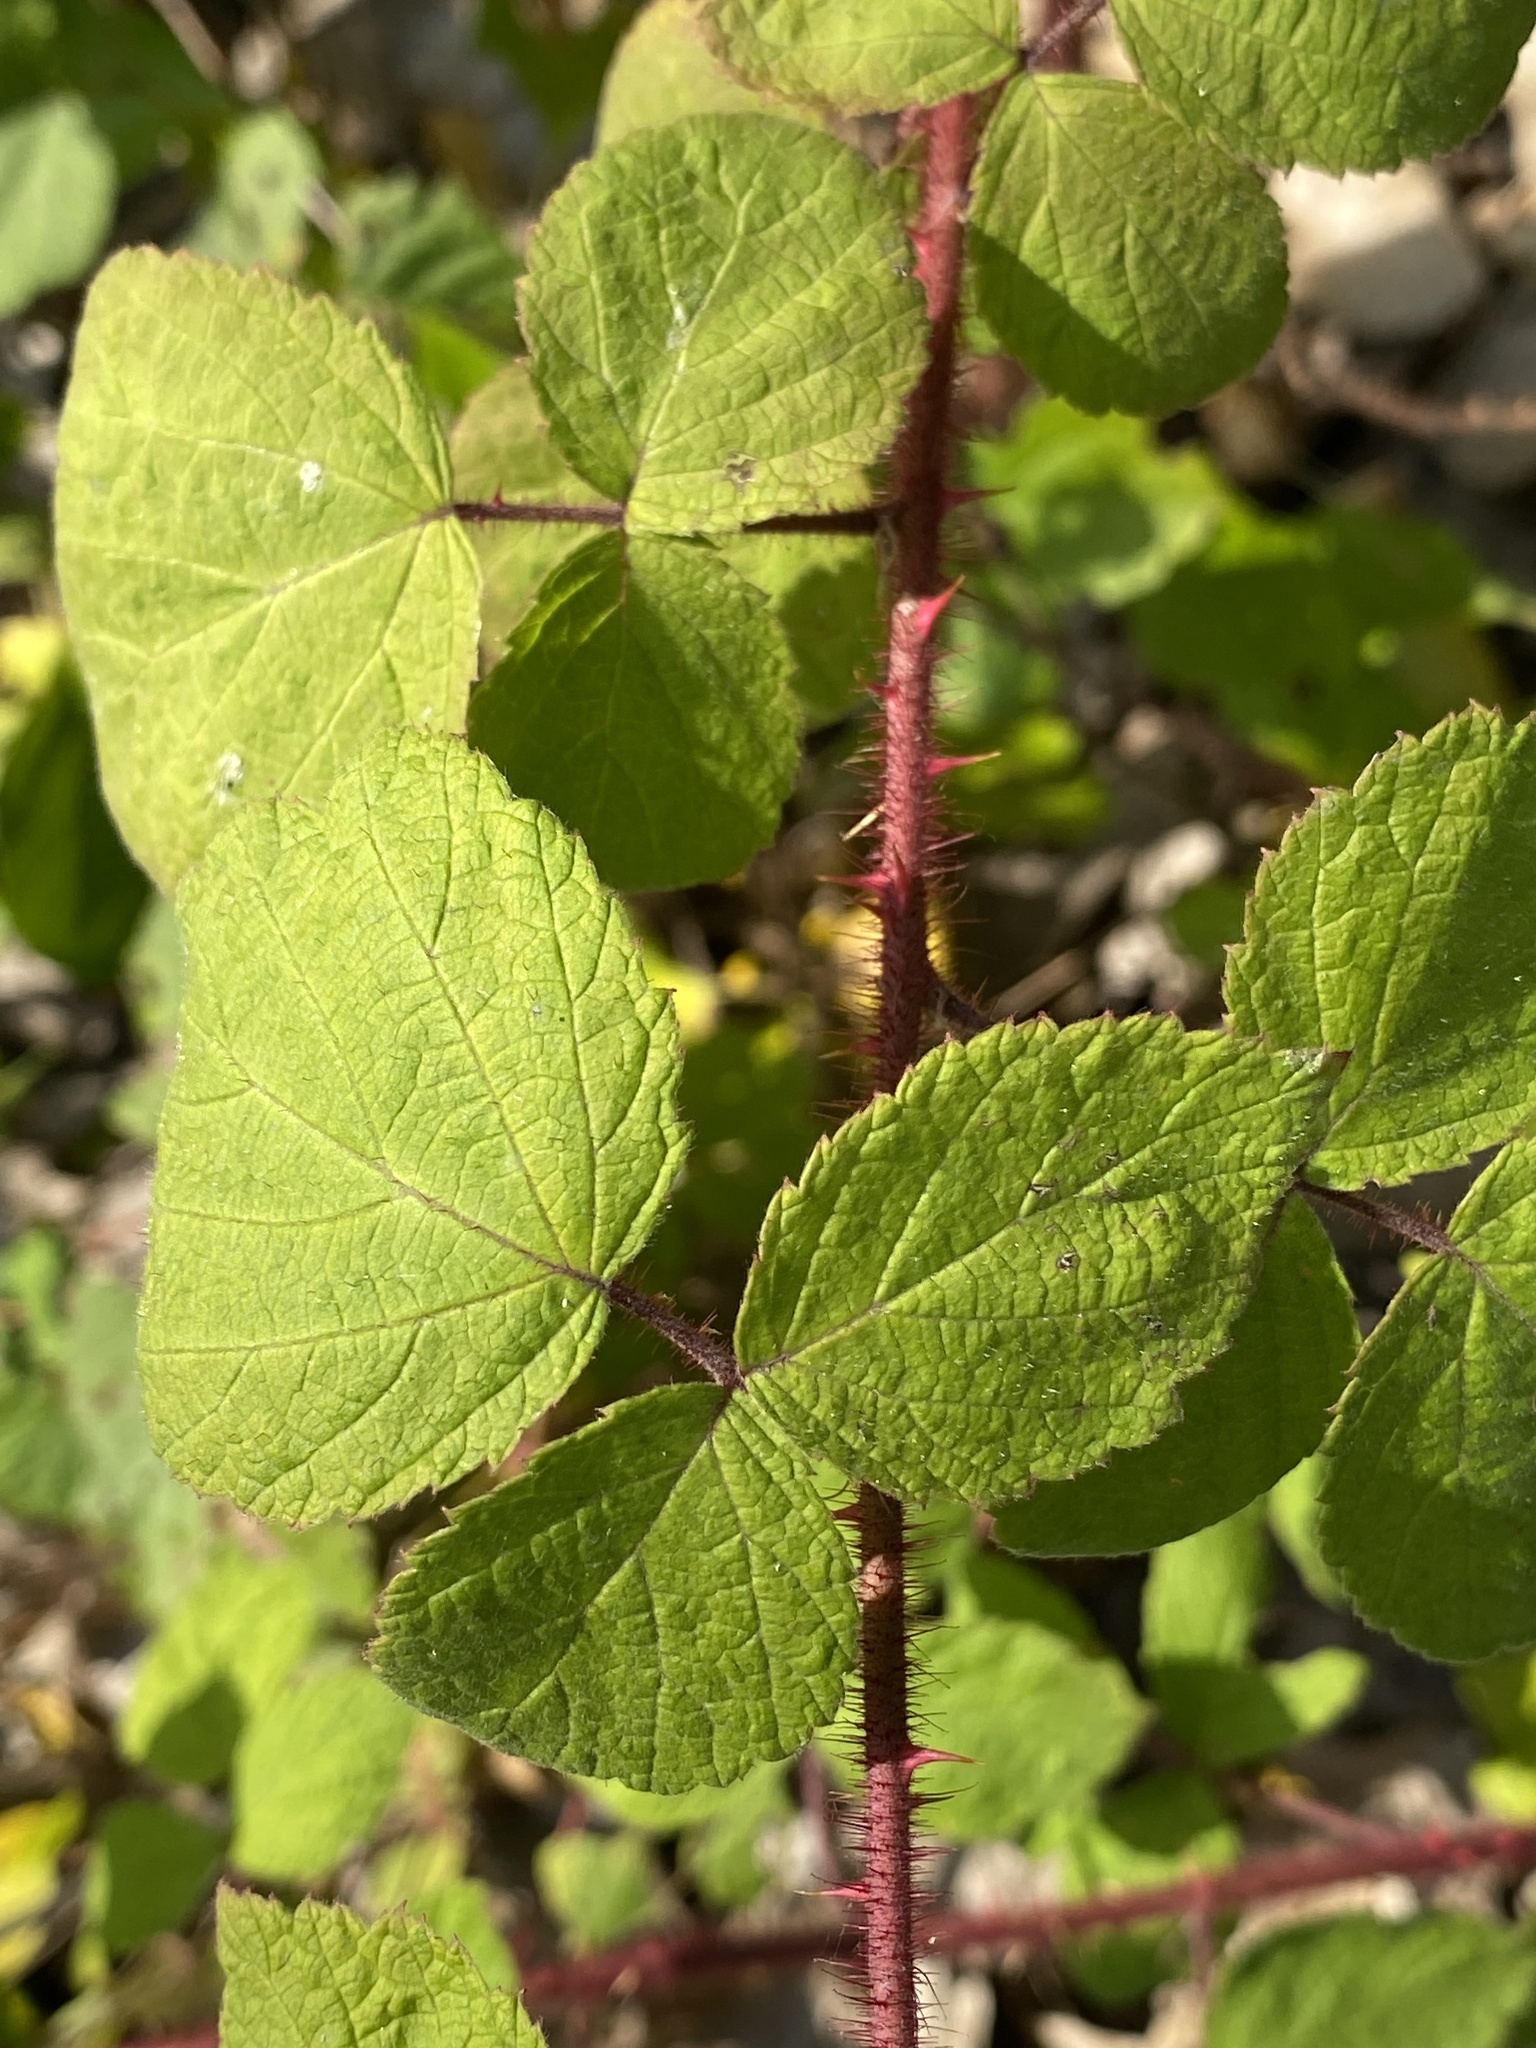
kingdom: Plantae
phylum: Tracheophyta
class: Magnoliopsida
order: Rosales
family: Rosaceae
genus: Rubus
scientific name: Rubus phoenicolasius
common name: Japanese wineberry
